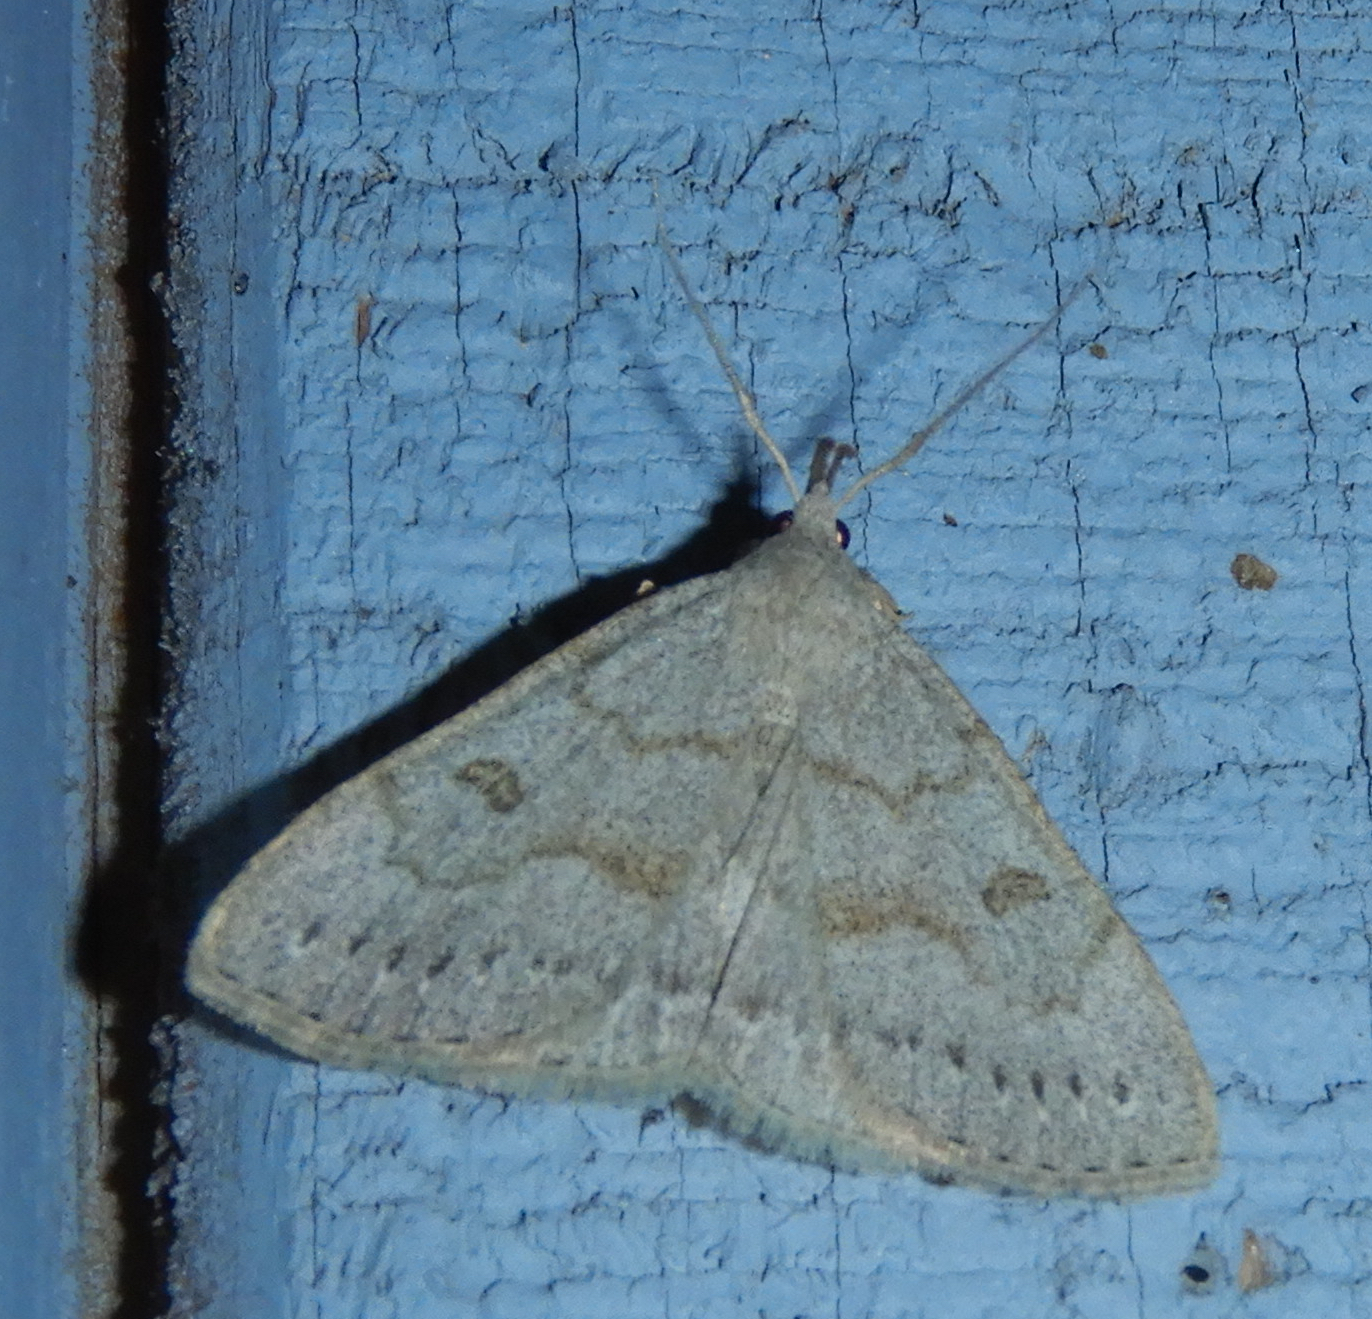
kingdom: Animalia
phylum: Arthropoda
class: Insecta
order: Lepidoptera
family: Erebidae
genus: Macrochilo
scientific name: Macrochilo morbidalis
